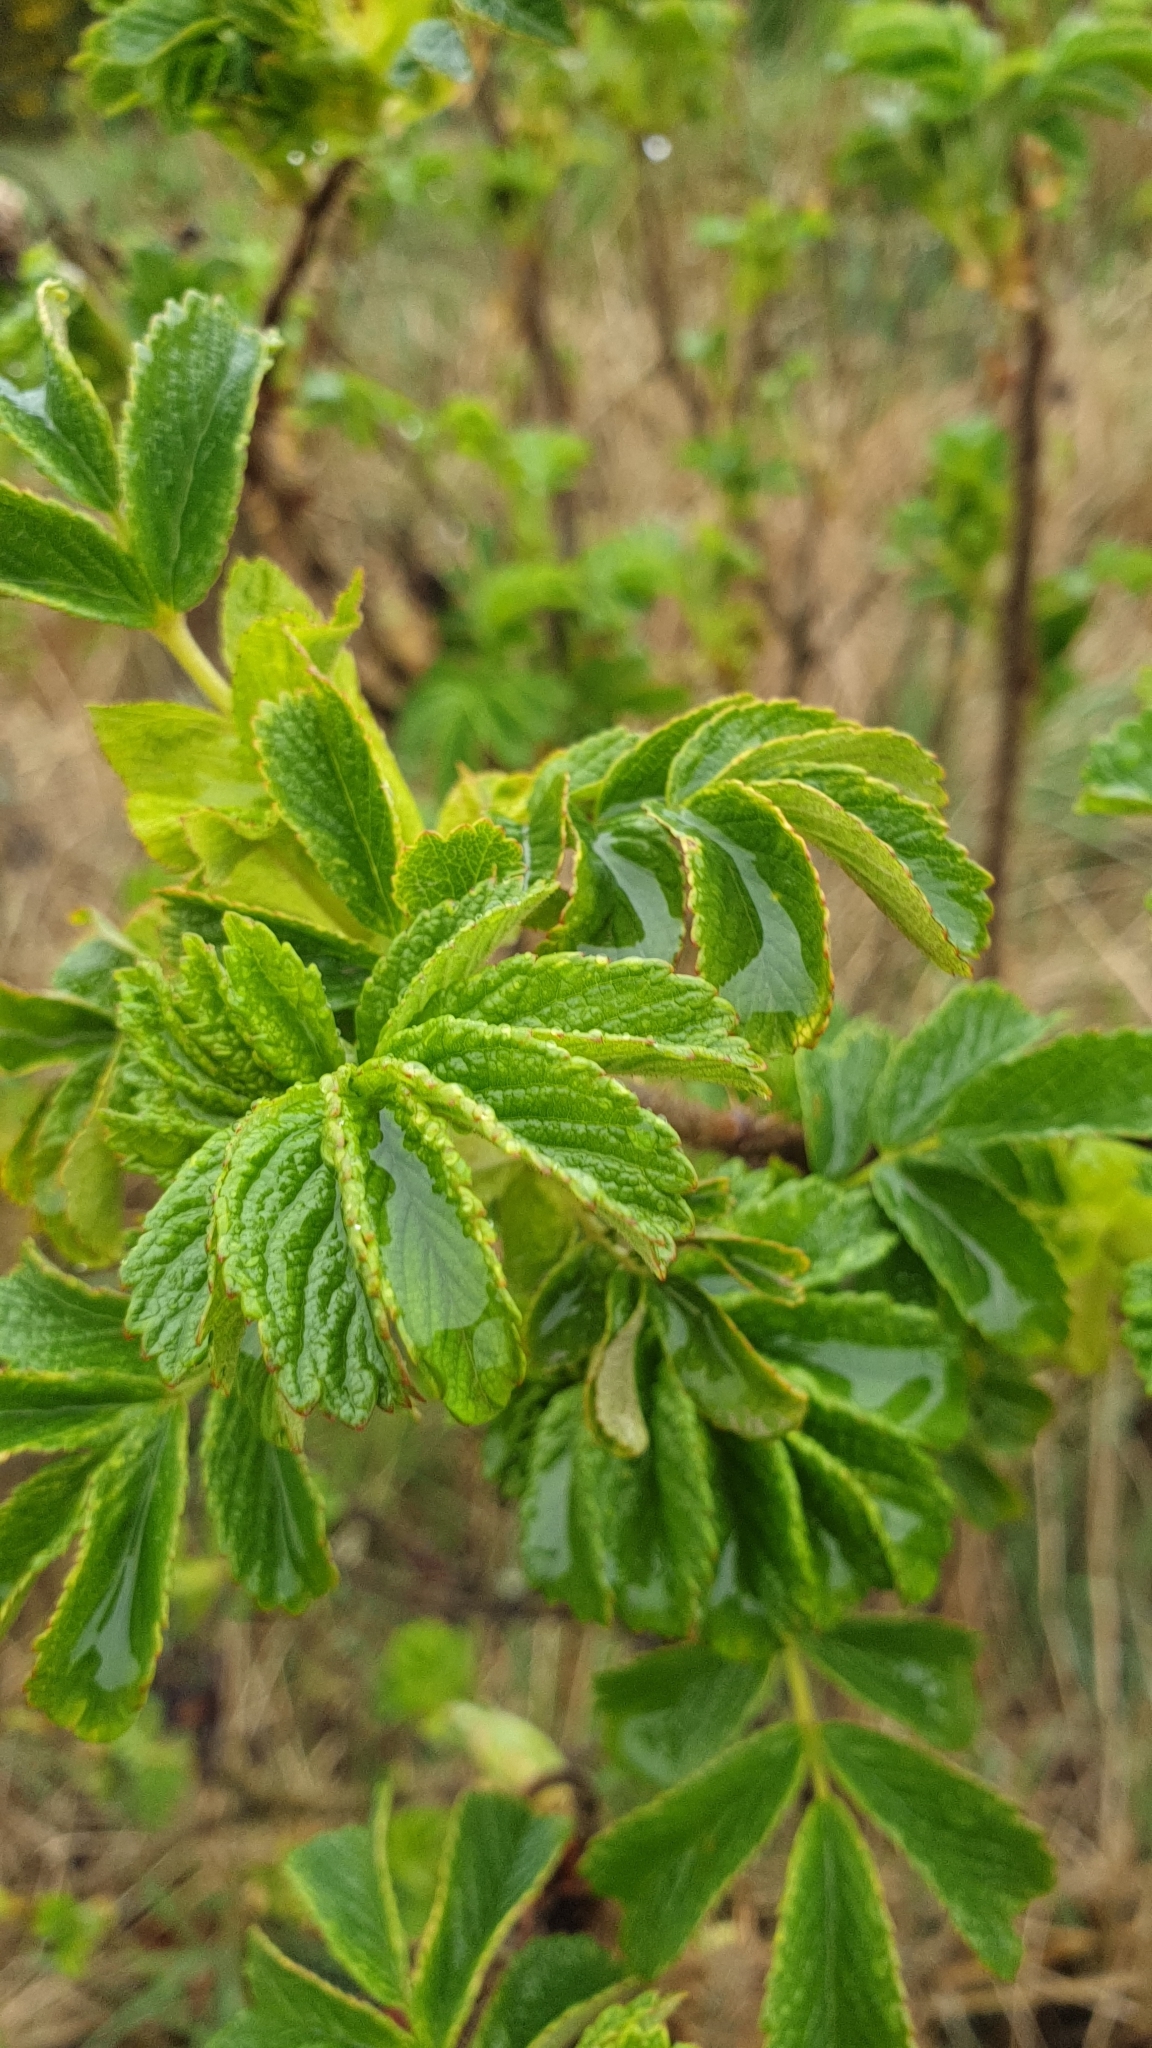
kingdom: Plantae
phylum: Tracheophyta
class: Magnoliopsida
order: Rosales
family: Rosaceae
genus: Rosa
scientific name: Rosa rugosa
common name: Japanese rose
